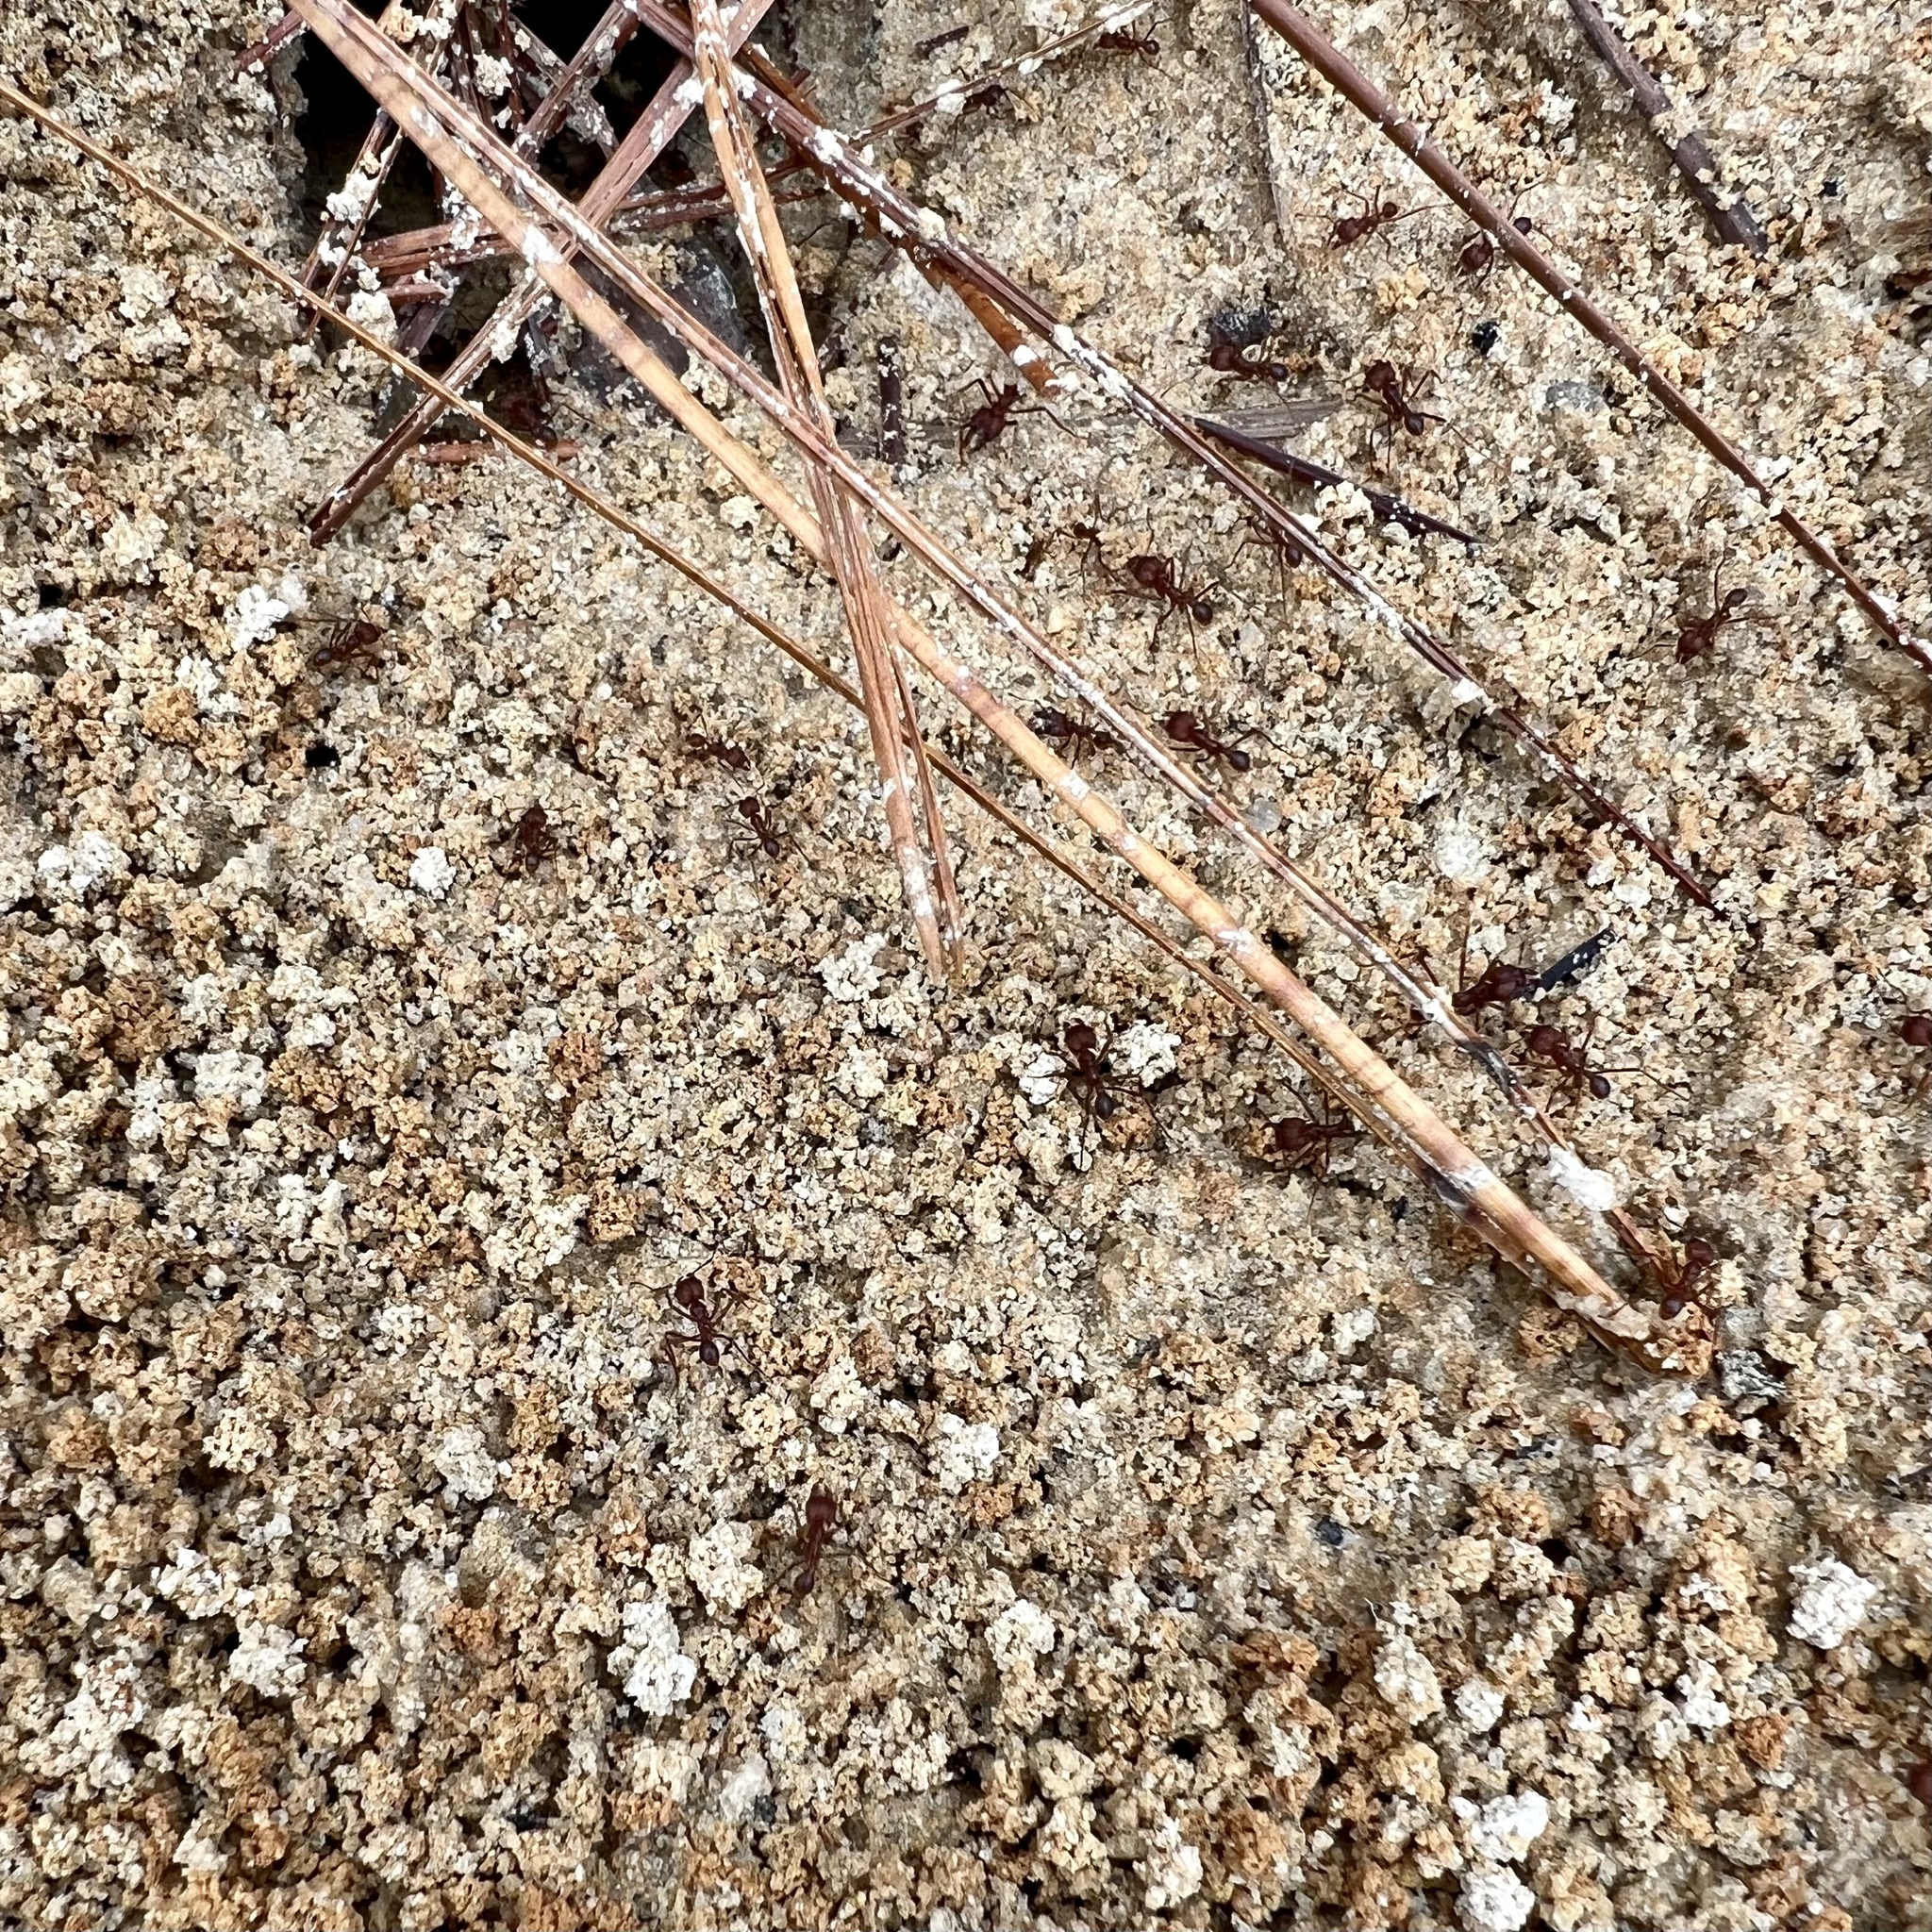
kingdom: Animalia
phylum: Arthropoda
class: Insecta
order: Hymenoptera
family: Formicidae
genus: Atta
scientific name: Atta texana
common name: Texas leafcutting ant
